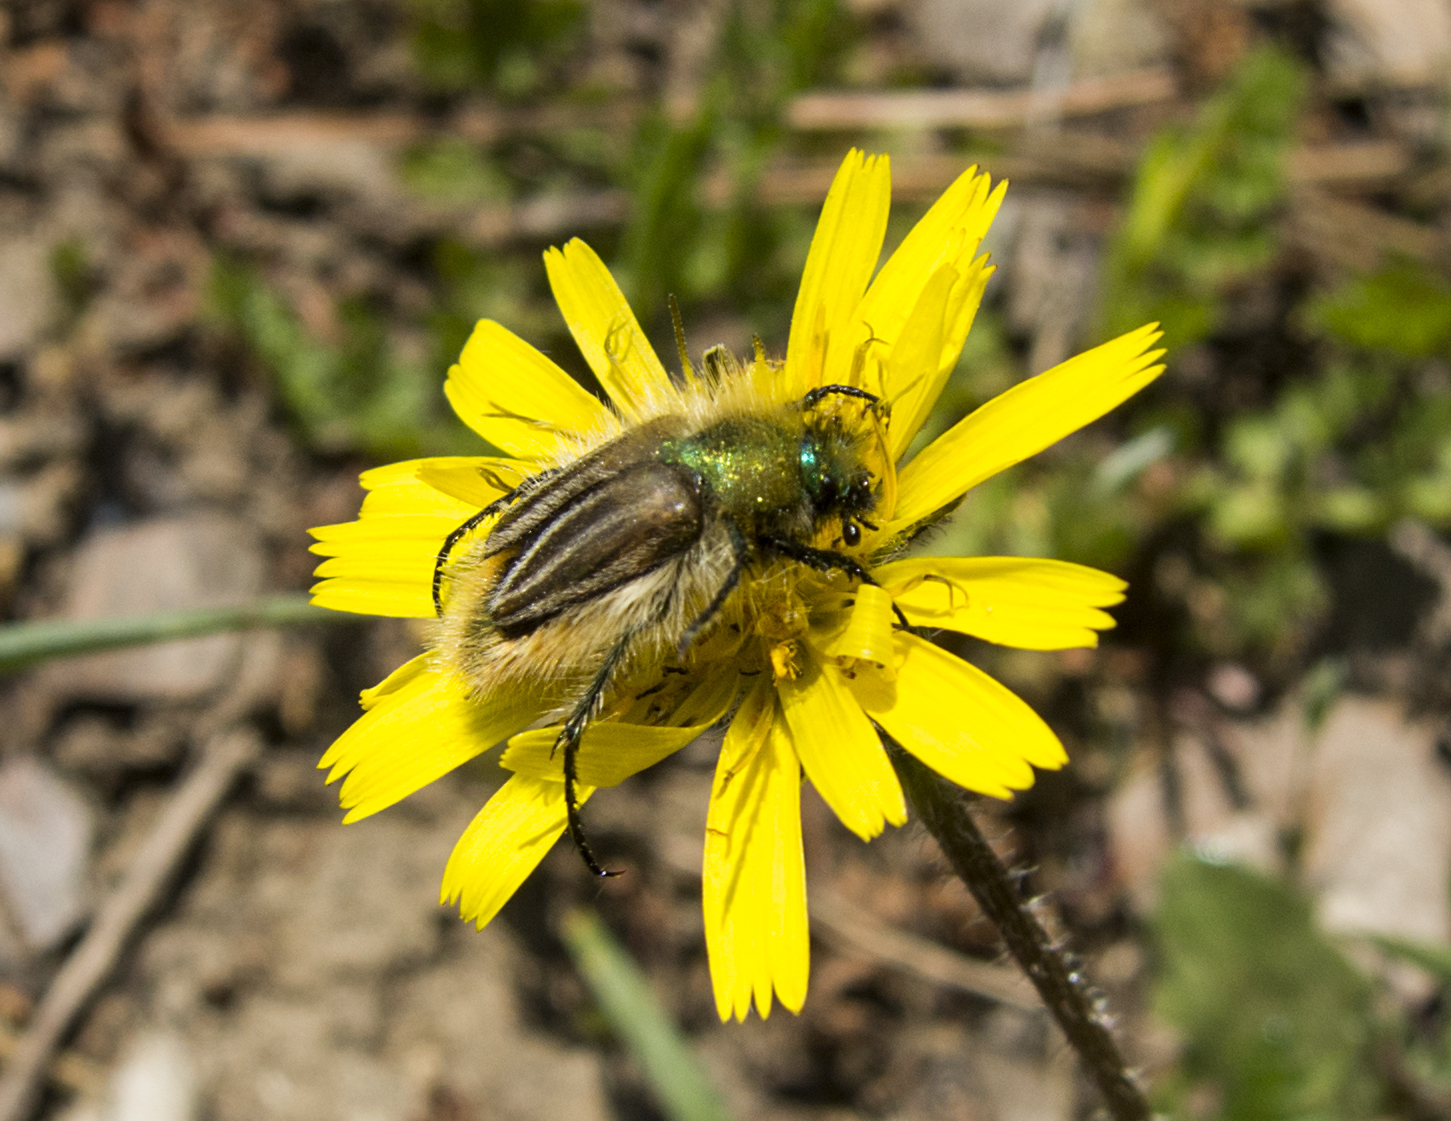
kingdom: Animalia
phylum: Arthropoda
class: Insecta
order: Coleoptera
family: Glaphyridae
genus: Eulasia
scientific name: Eulasia pareyssei
